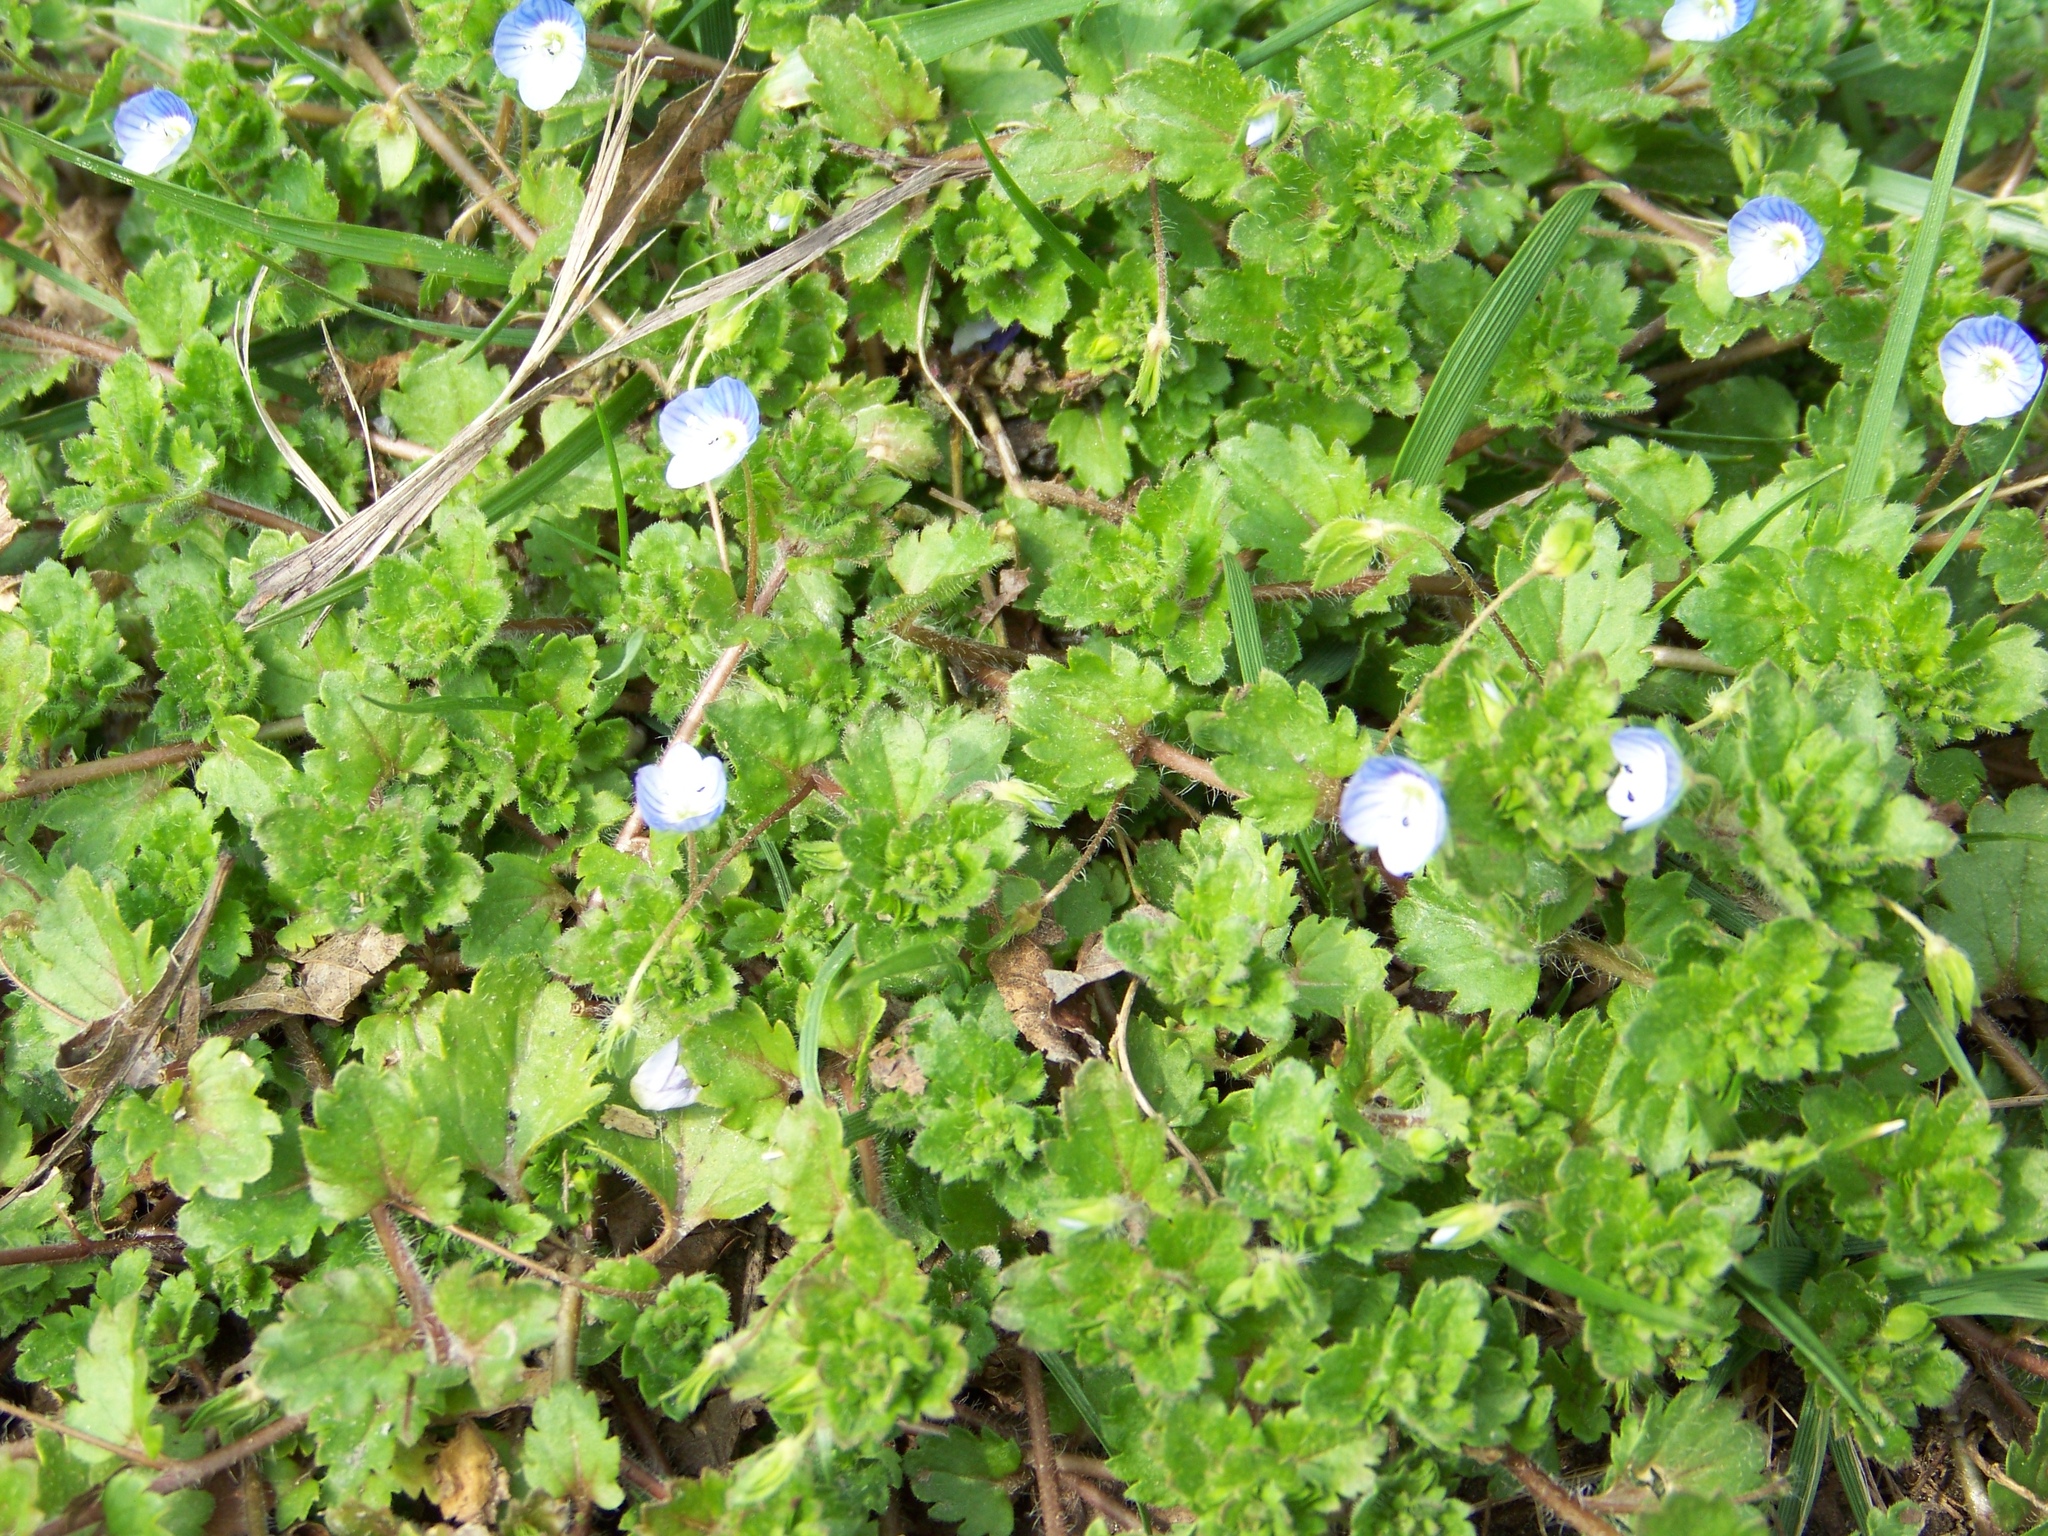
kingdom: Plantae
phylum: Tracheophyta
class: Magnoliopsida
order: Lamiales
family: Plantaginaceae
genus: Veronica
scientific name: Veronica persica
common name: Common field-speedwell
